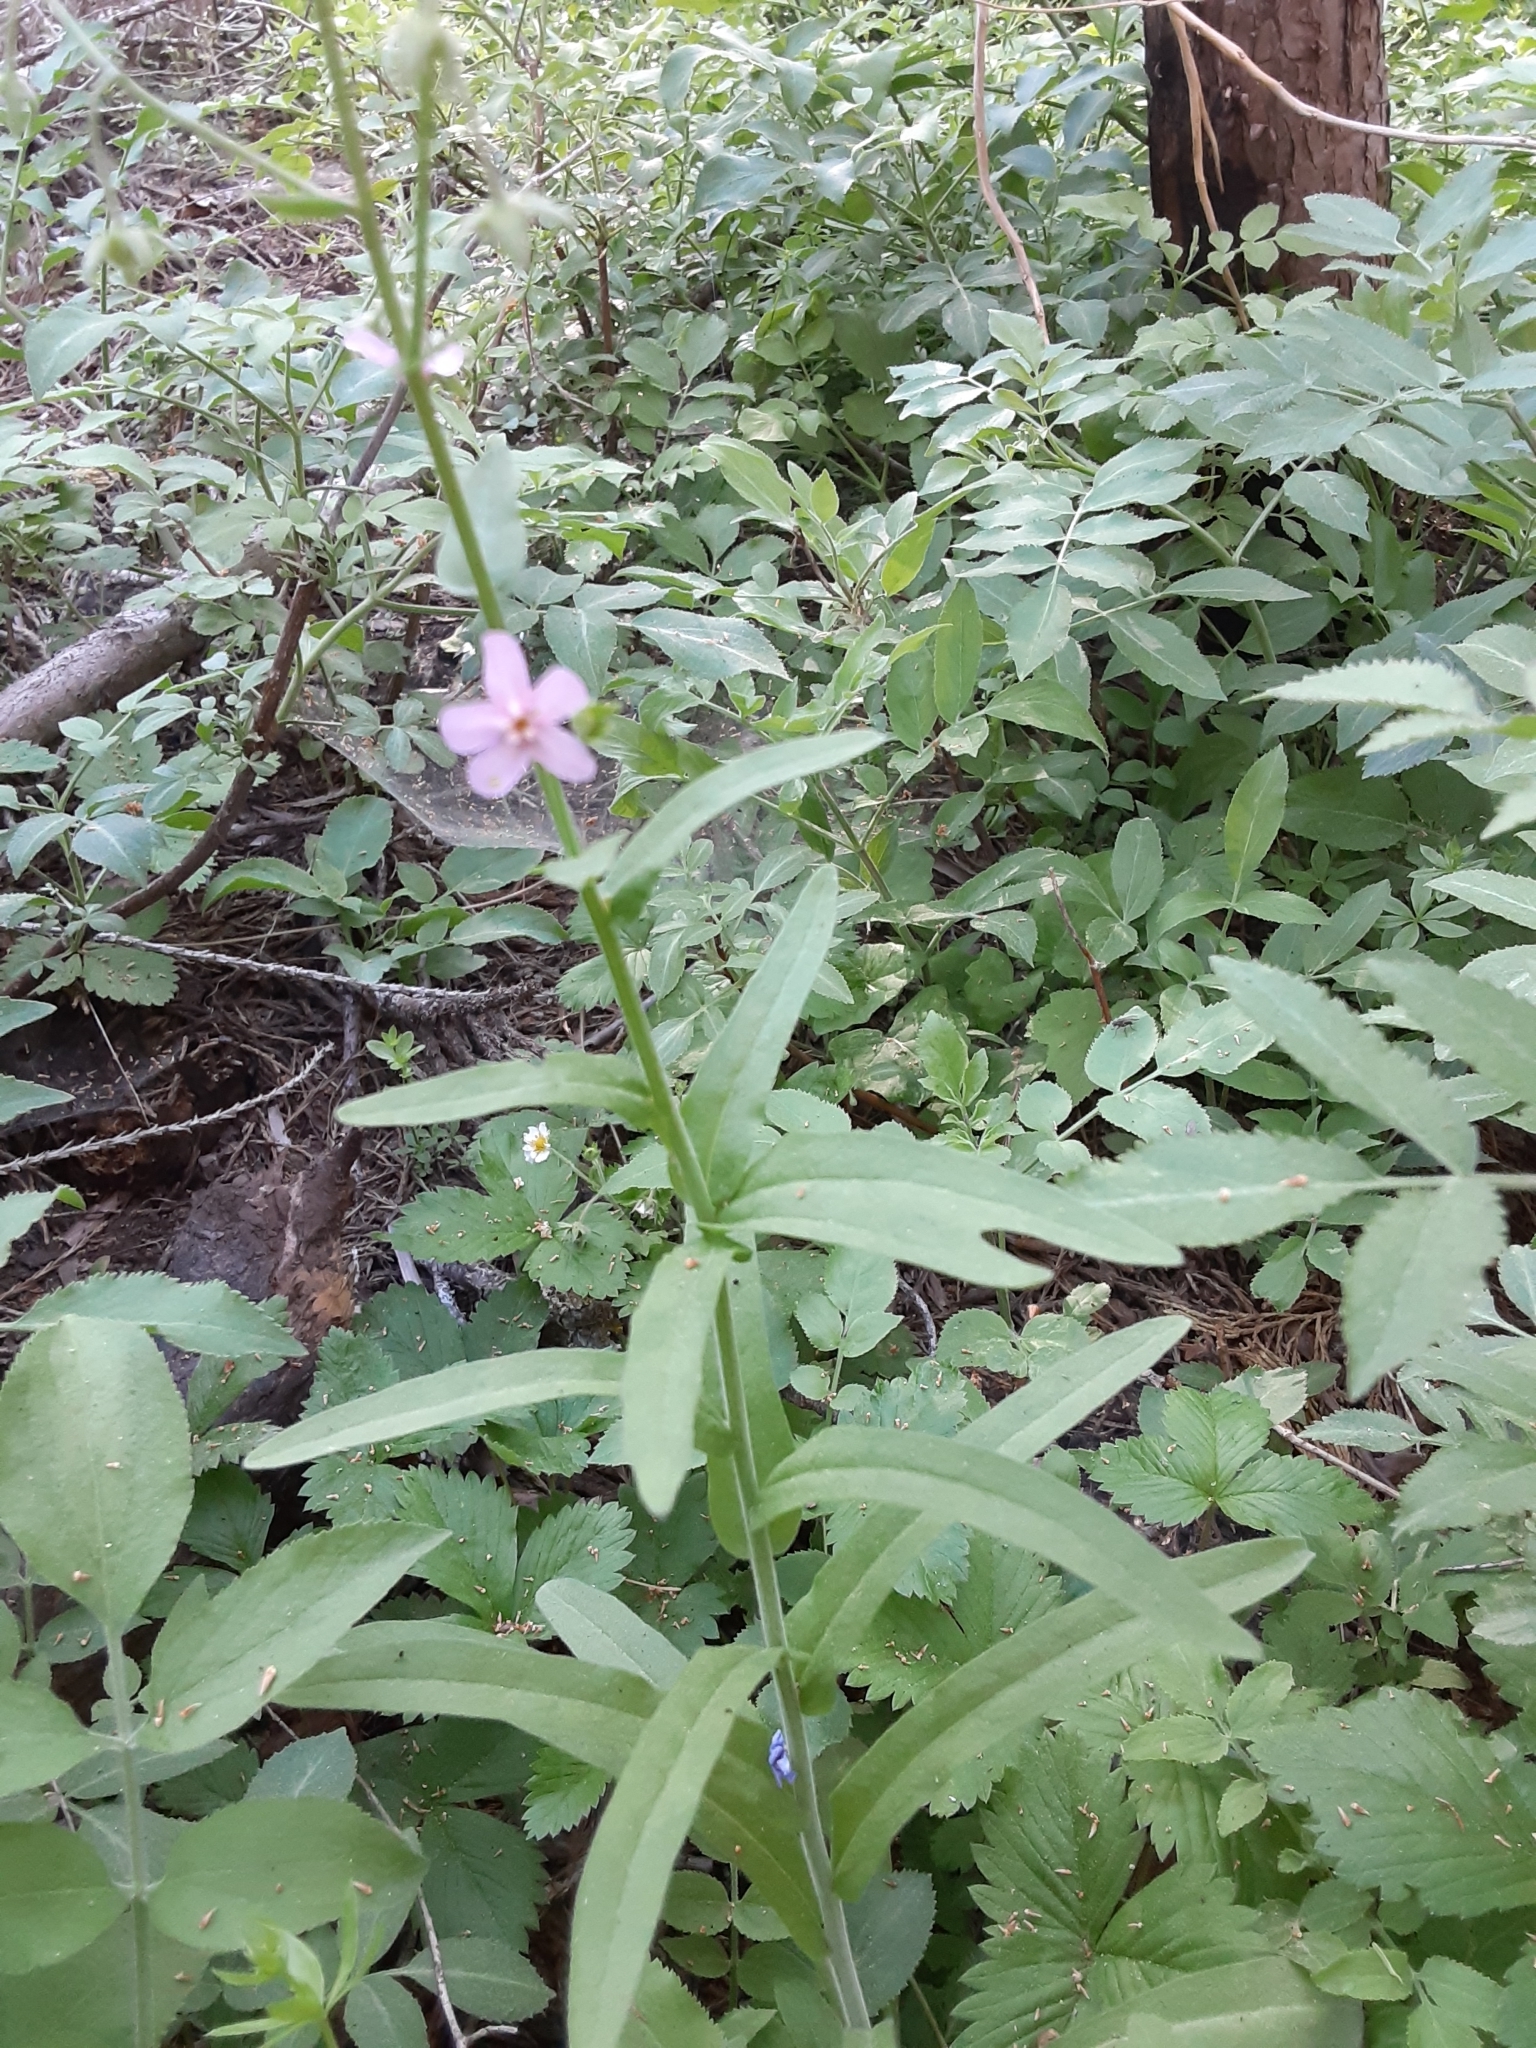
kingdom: Plantae
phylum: Tracheophyta
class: Magnoliopsida
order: Boraginales
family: Boraginaceae
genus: Hackelia
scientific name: Hackelia mundula
